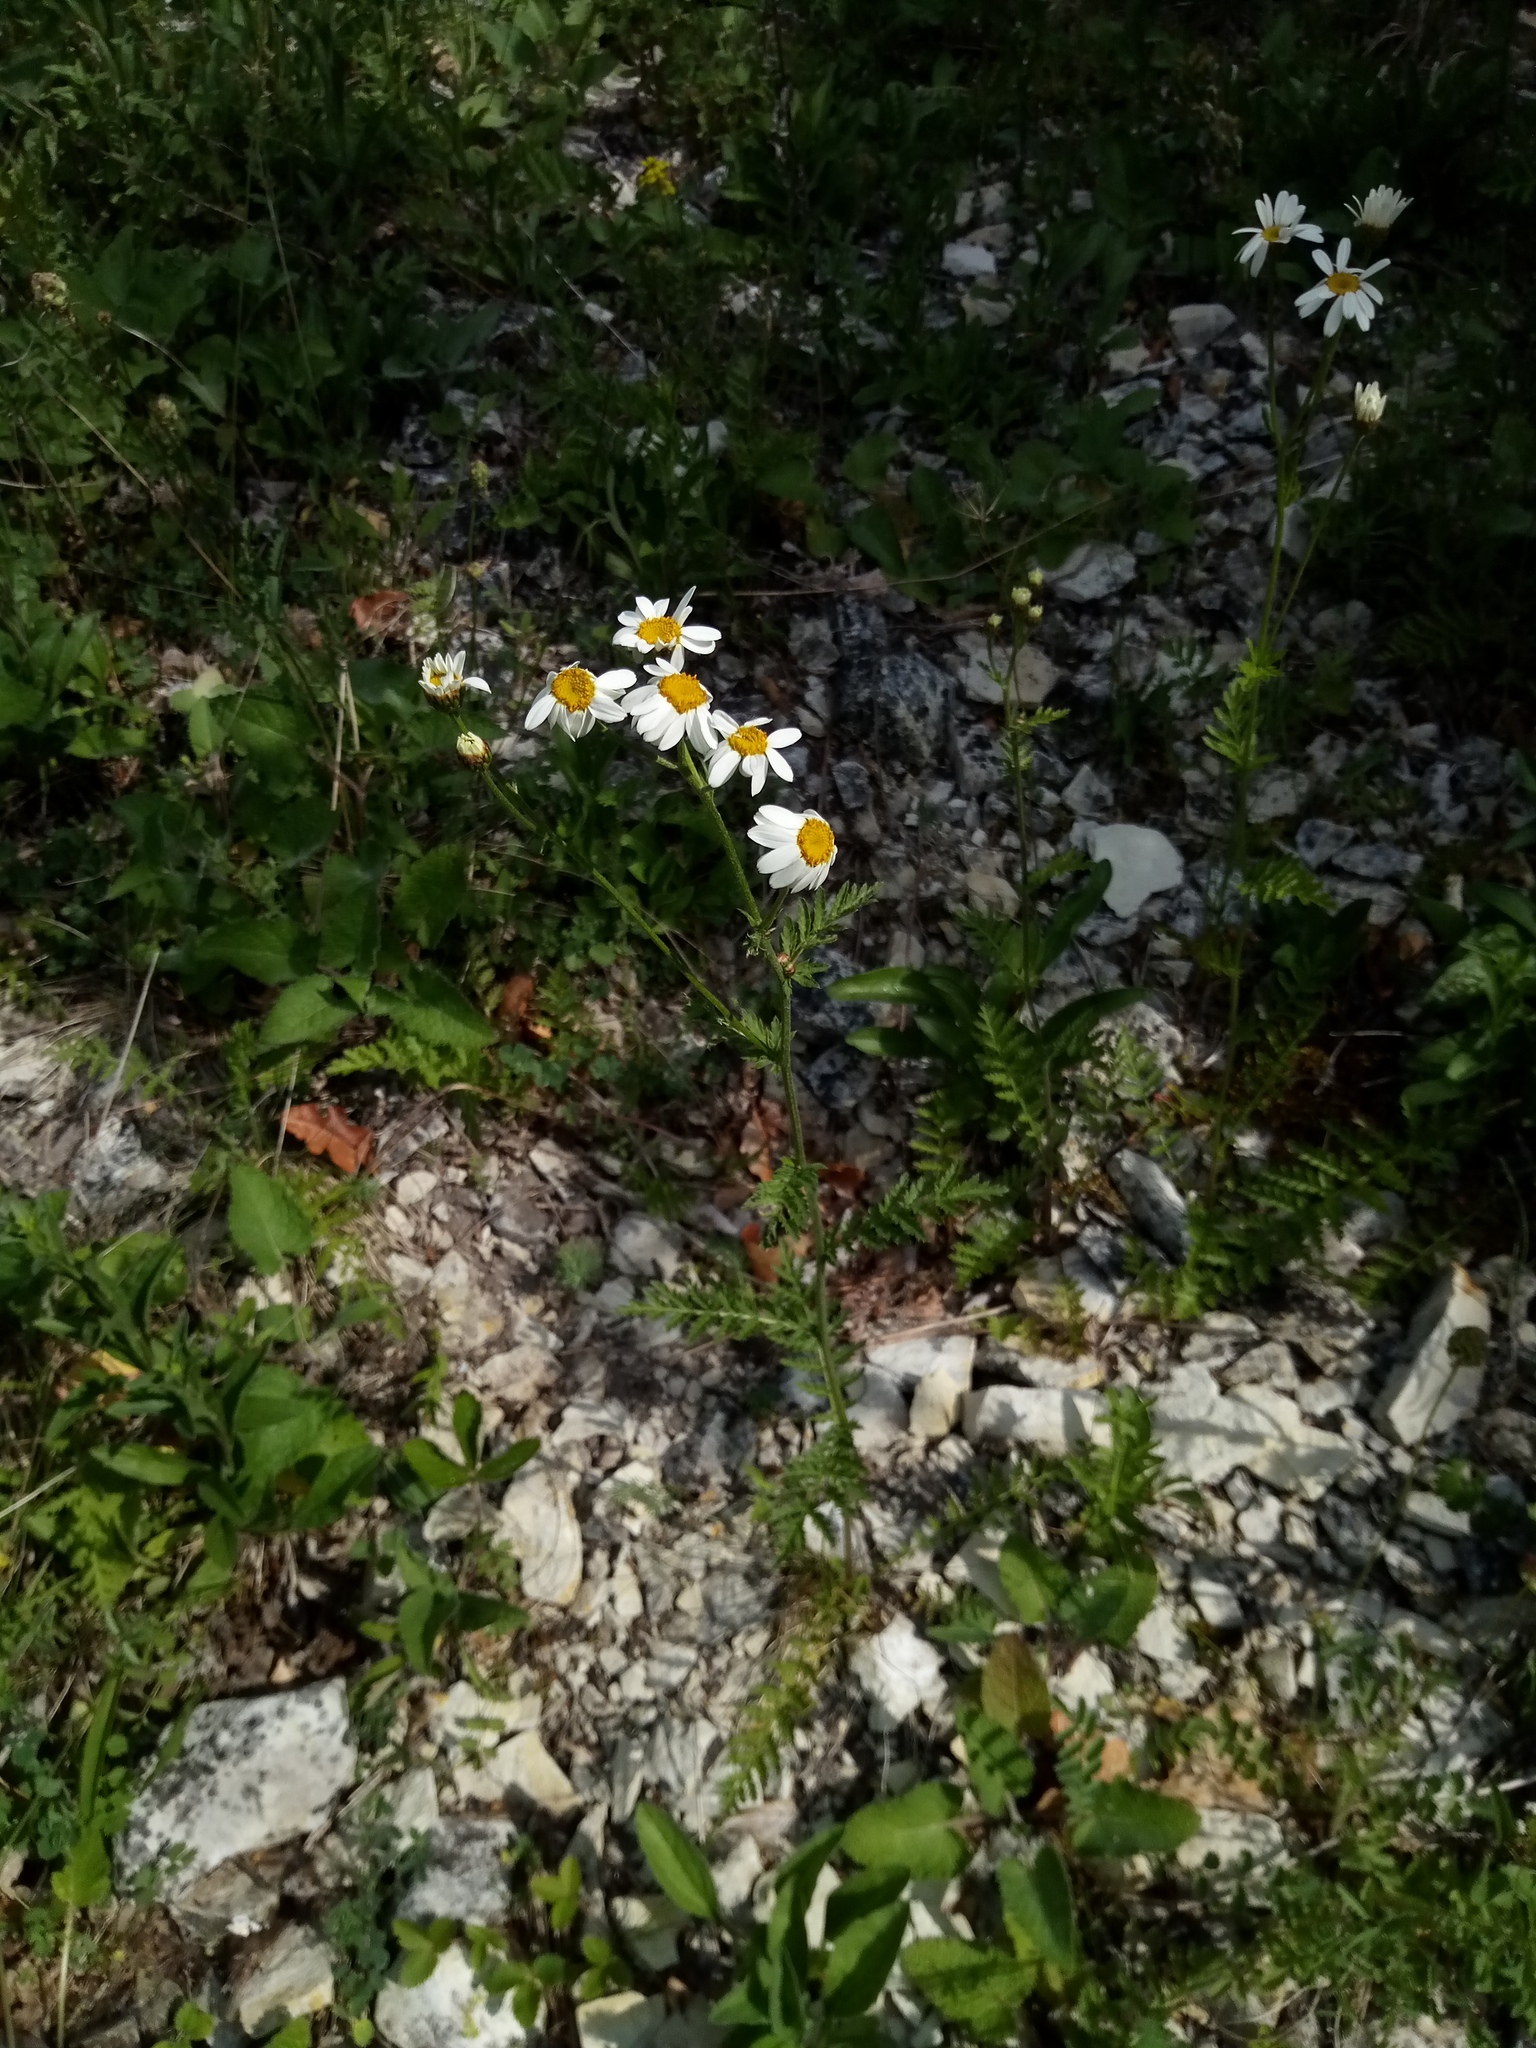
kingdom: Plantae
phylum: Tracheophyta
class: Magnoliopsida
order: Asterales
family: Asteraceae
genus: Tanacetum
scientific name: Tanacetum corymbosum
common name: Scentless feverfew
